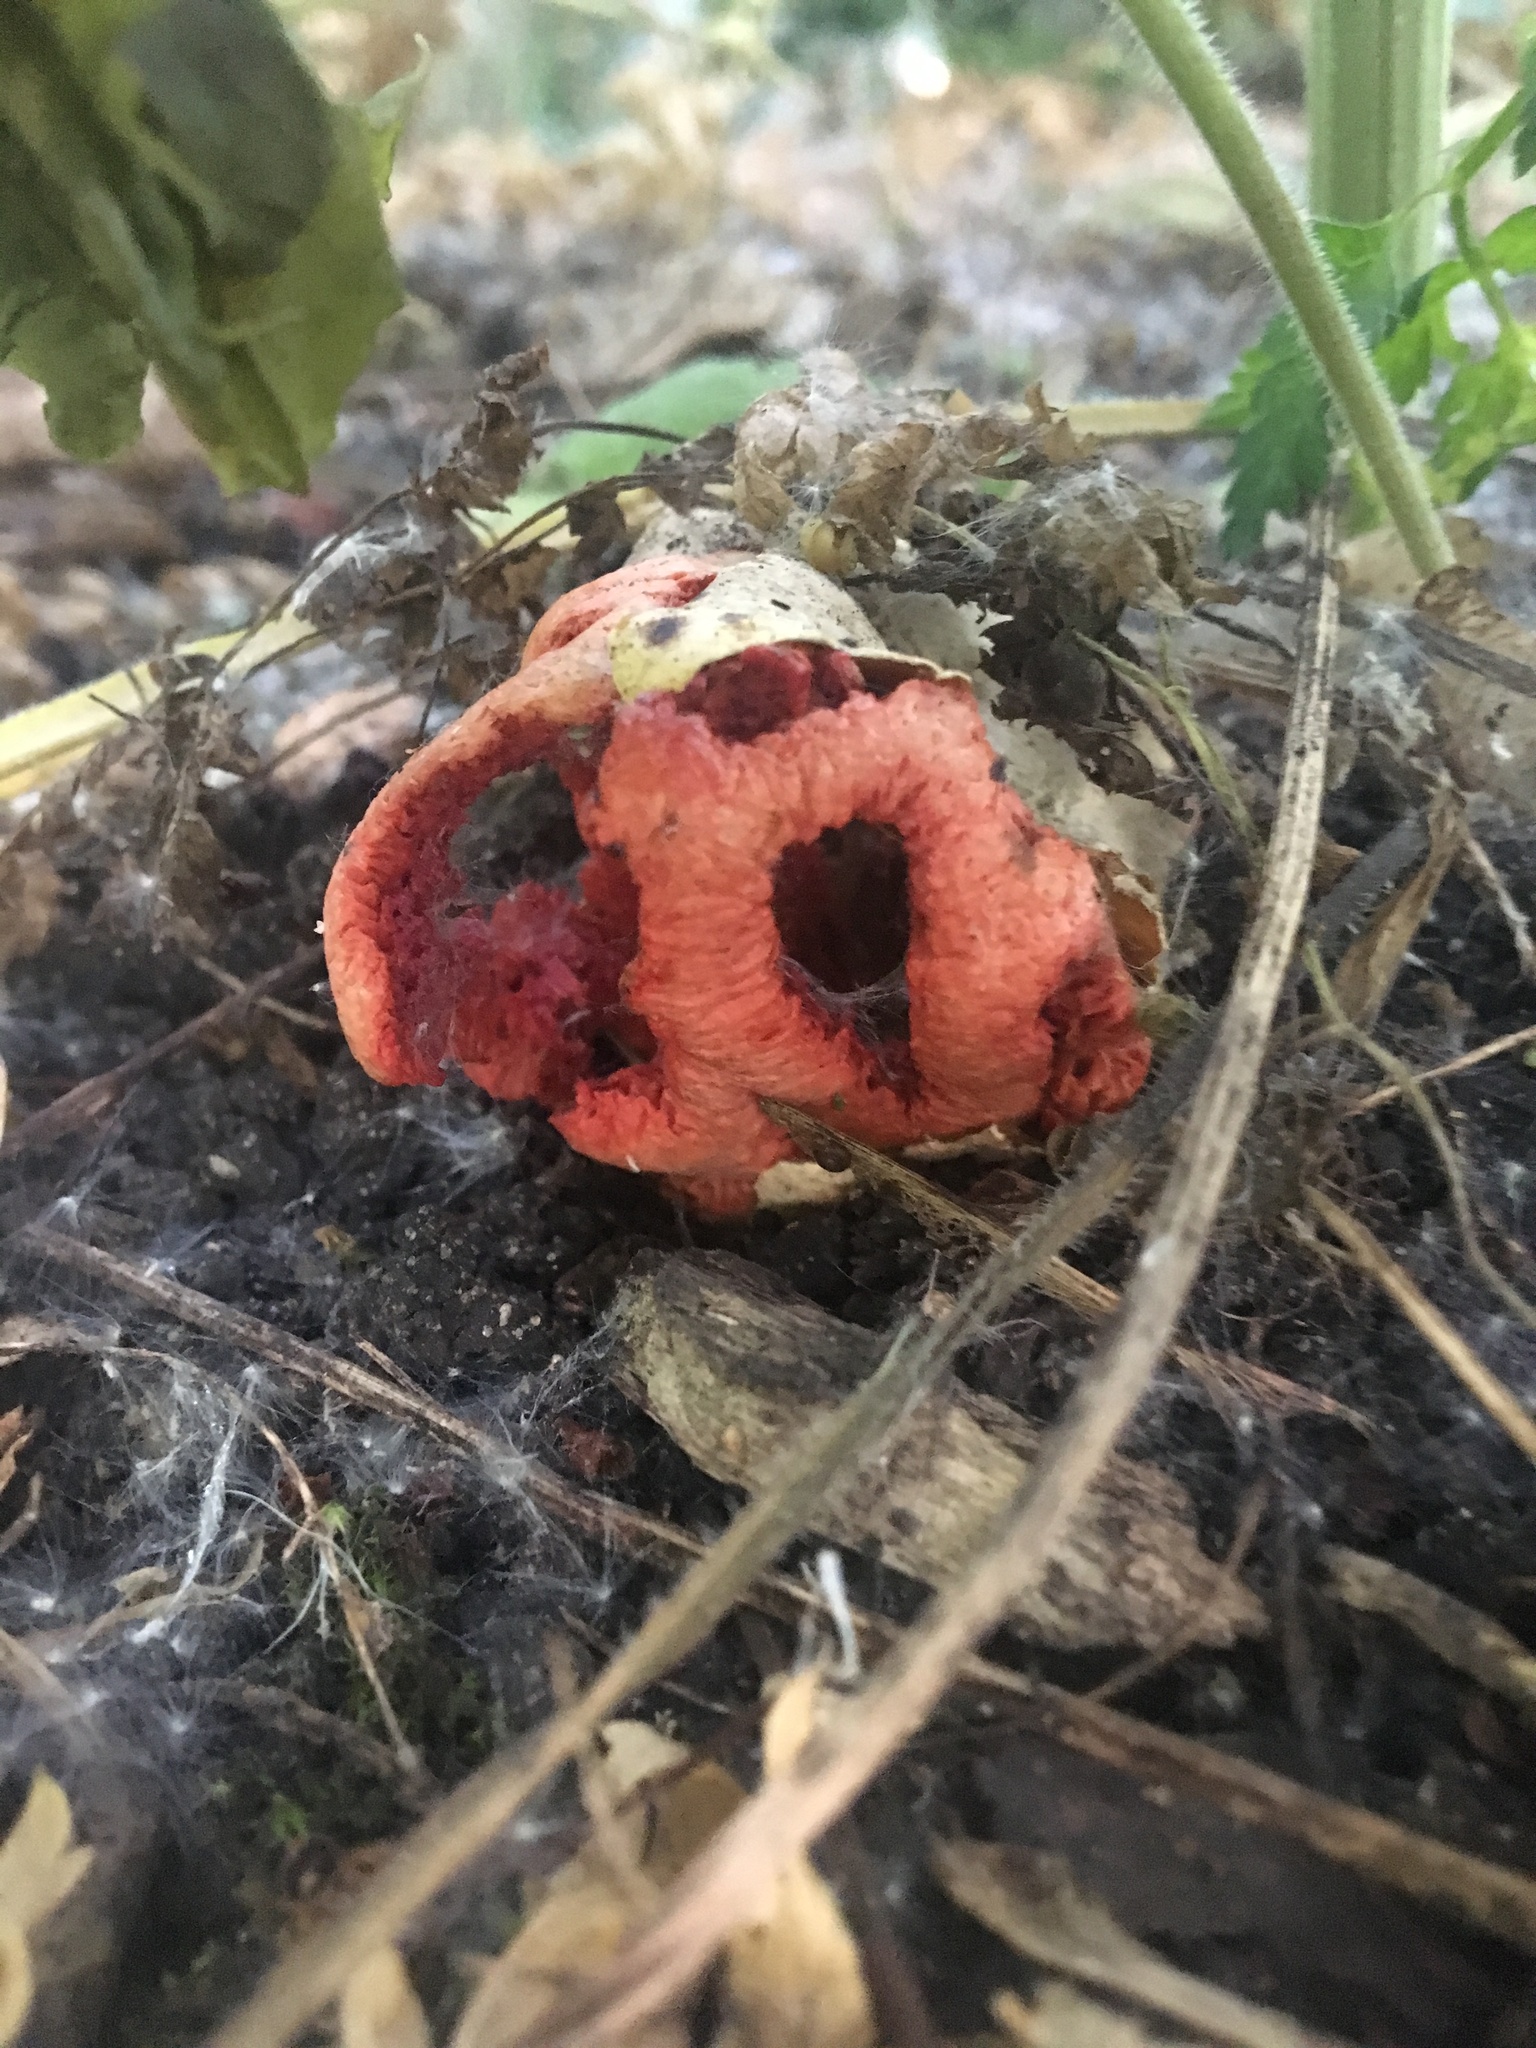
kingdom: Fungi
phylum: Basidiomycota
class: Agaricomycetes
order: Phallales
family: Phallaceae
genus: Clathrus
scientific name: Clathrus ruber
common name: Red cage
